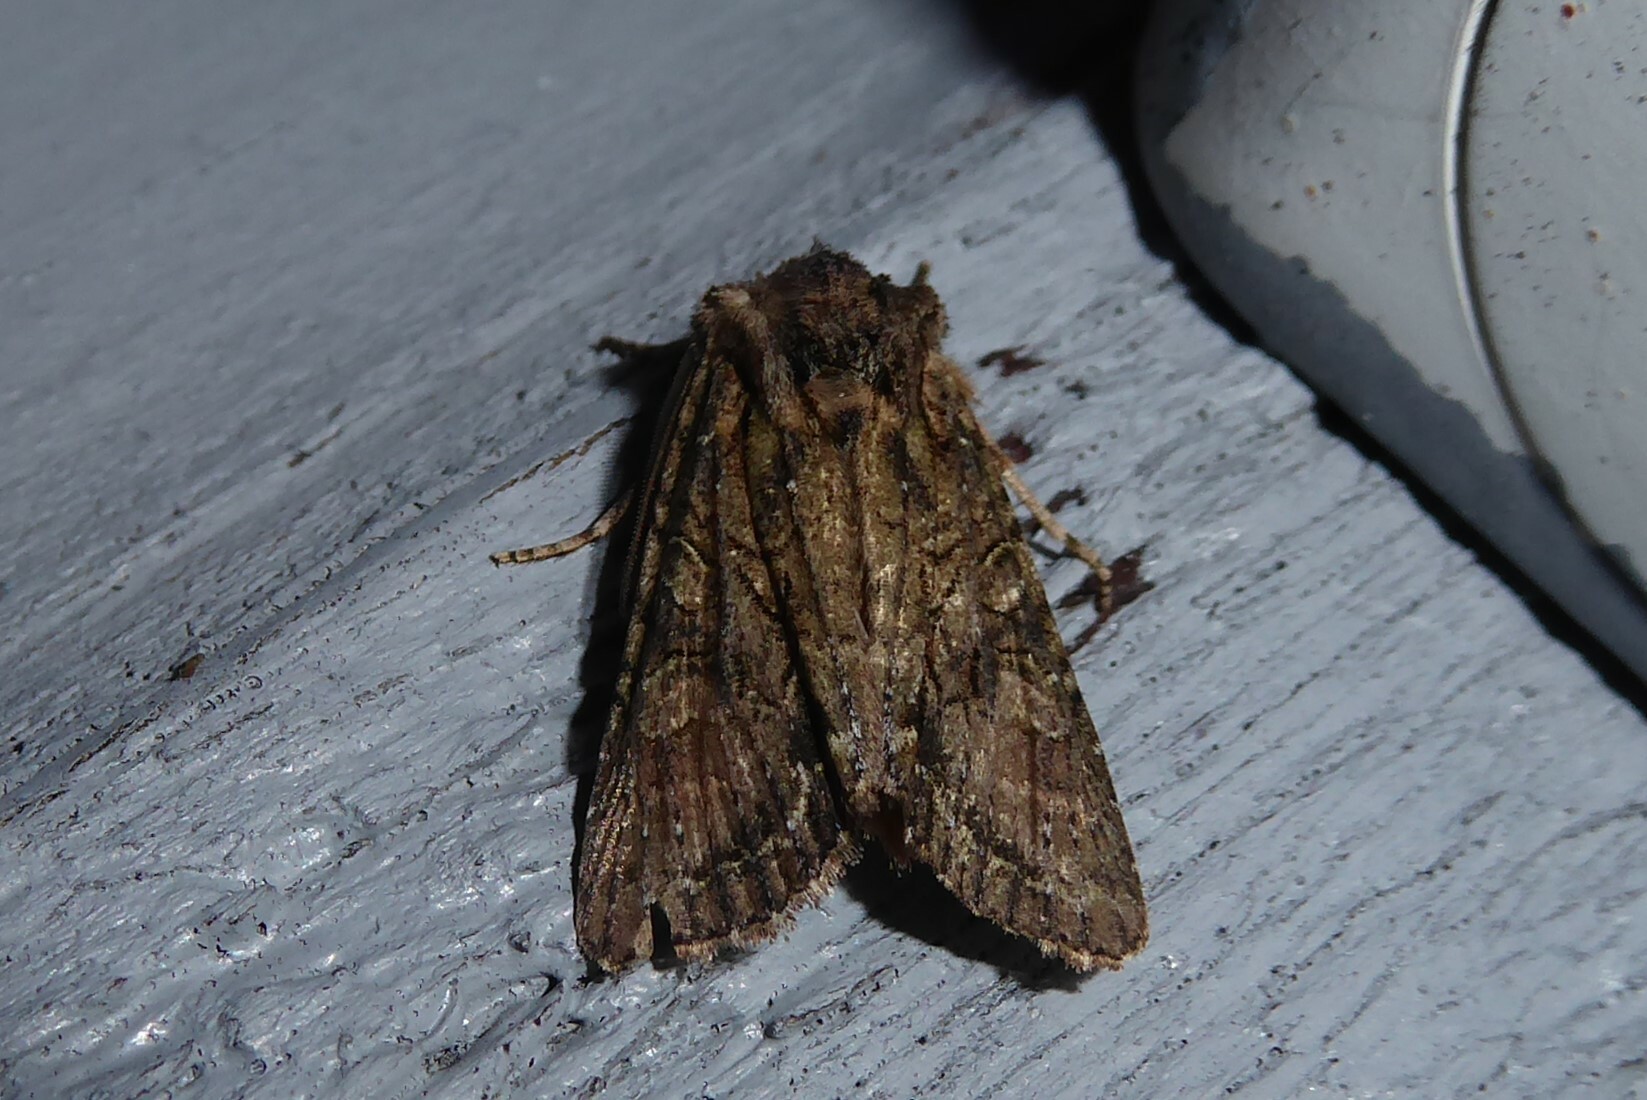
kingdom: Animalia
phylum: Arthropoda
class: Insecta
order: Lepidoptera
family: Noctuidae
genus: Ichneutica
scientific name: Ichneutica mutans
